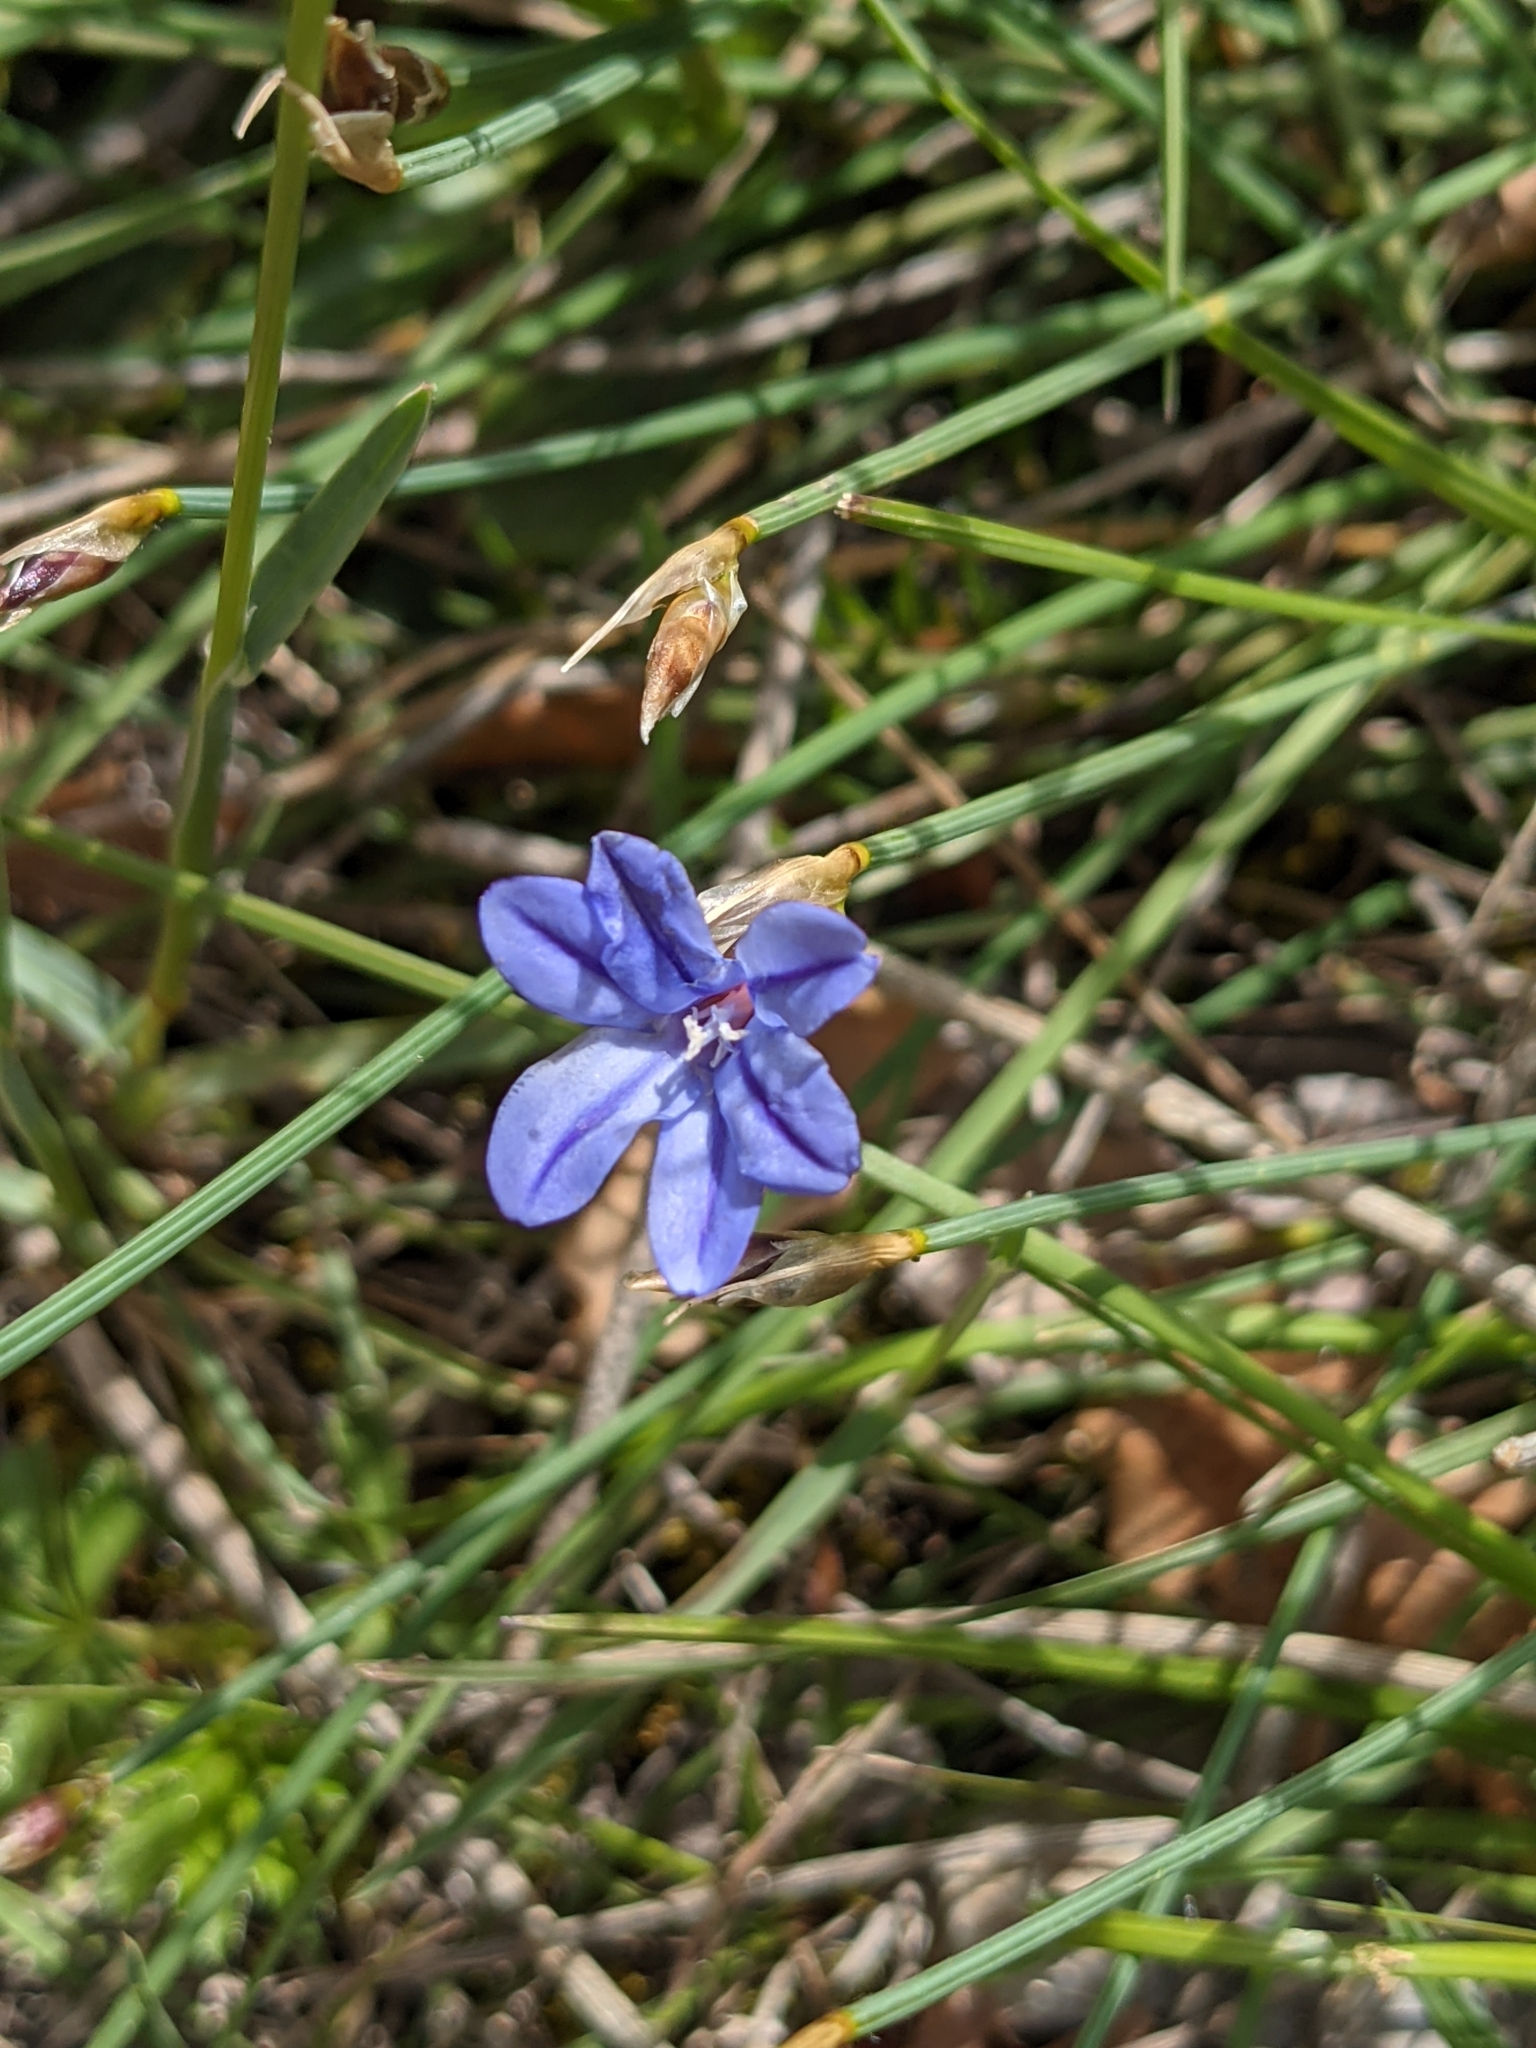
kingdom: Plantae
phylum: Tracheophyta
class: Liliopsida
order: Asparagales
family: Asparagaceae
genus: Aphyllanthes
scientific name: Aphyllanthes monspeliensis
